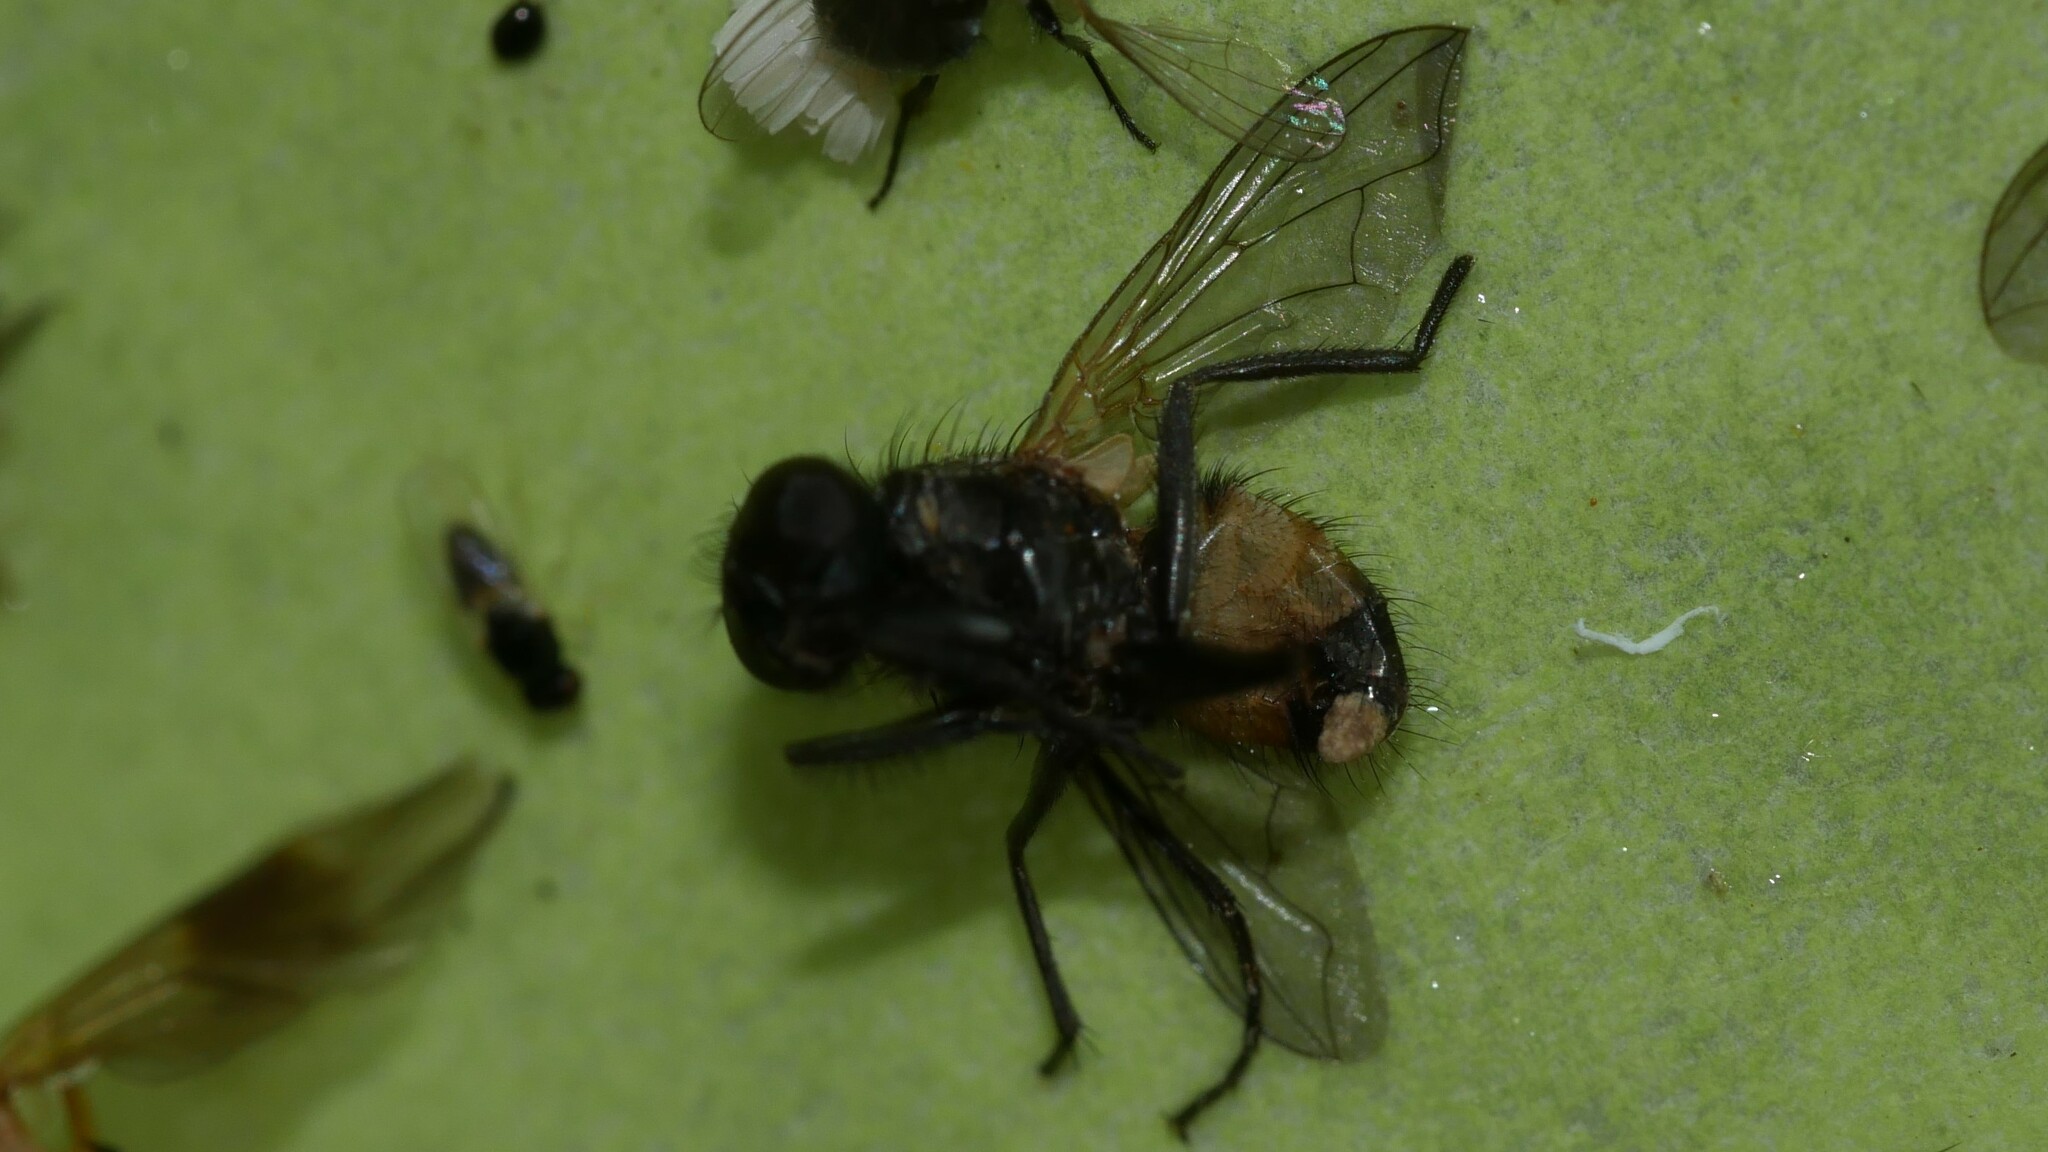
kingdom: Animalia
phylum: Arthropoda
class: Insecta
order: Diptera
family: Muscidae
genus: Musca
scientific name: Musca domestica
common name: House fly
